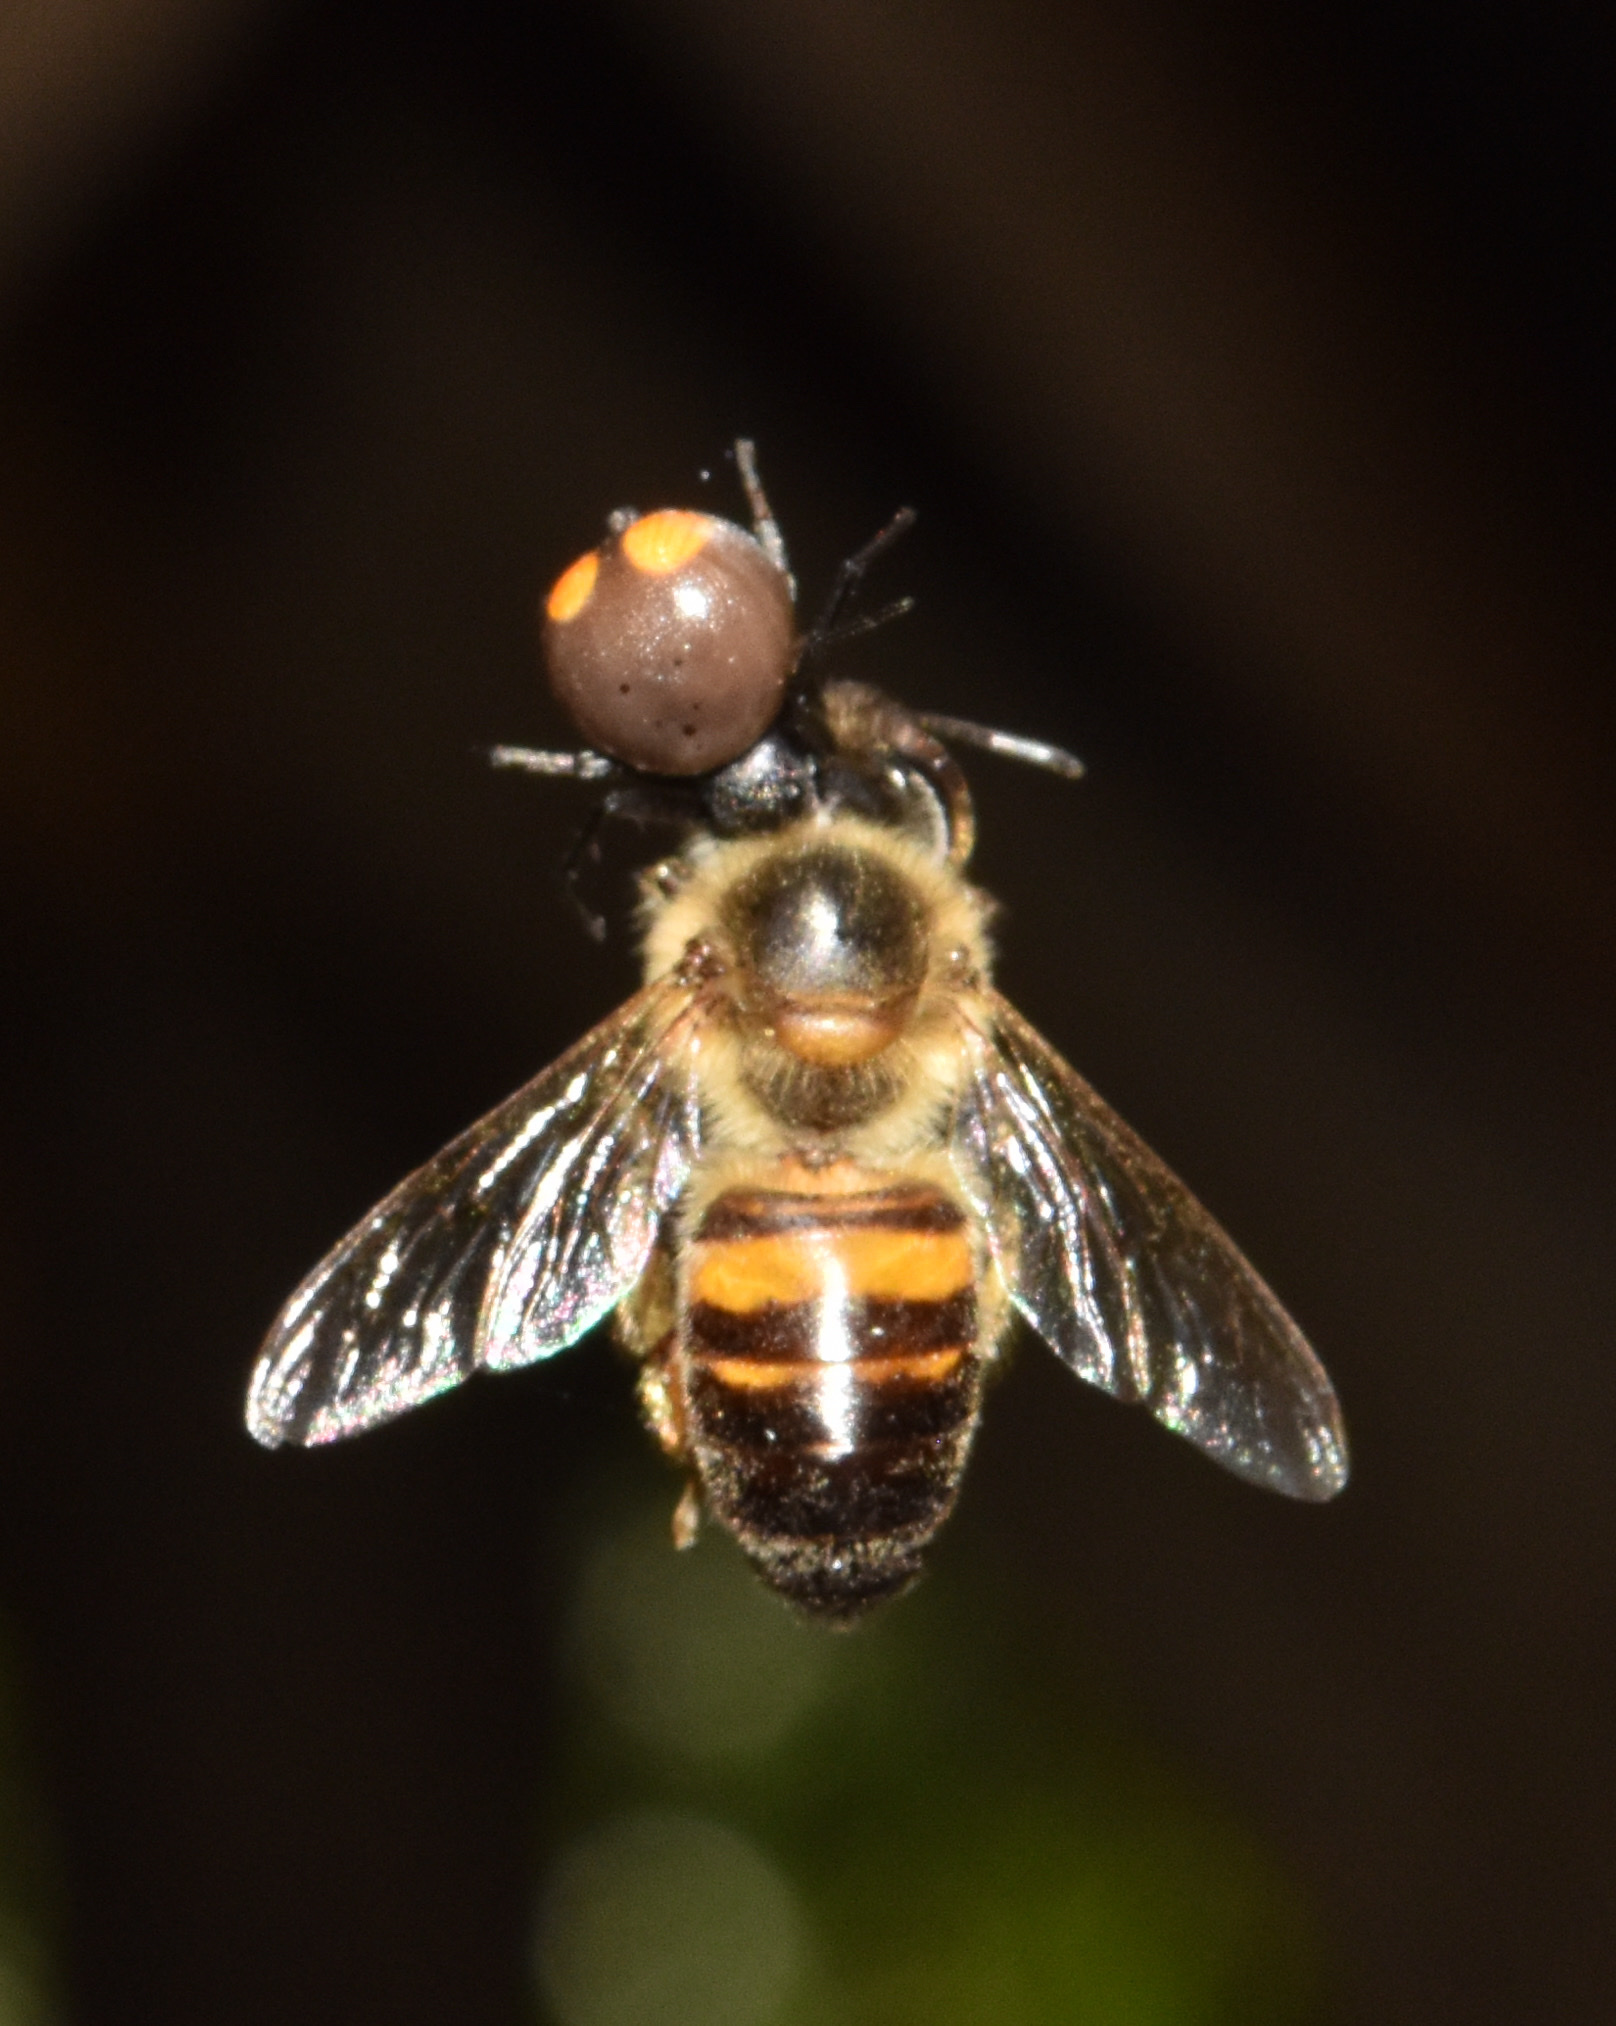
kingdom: Animalia
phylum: Arthropoda
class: Insecta
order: Hymenoptera
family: Apidae
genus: Apis
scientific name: Apis mellifera
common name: Honey bee
